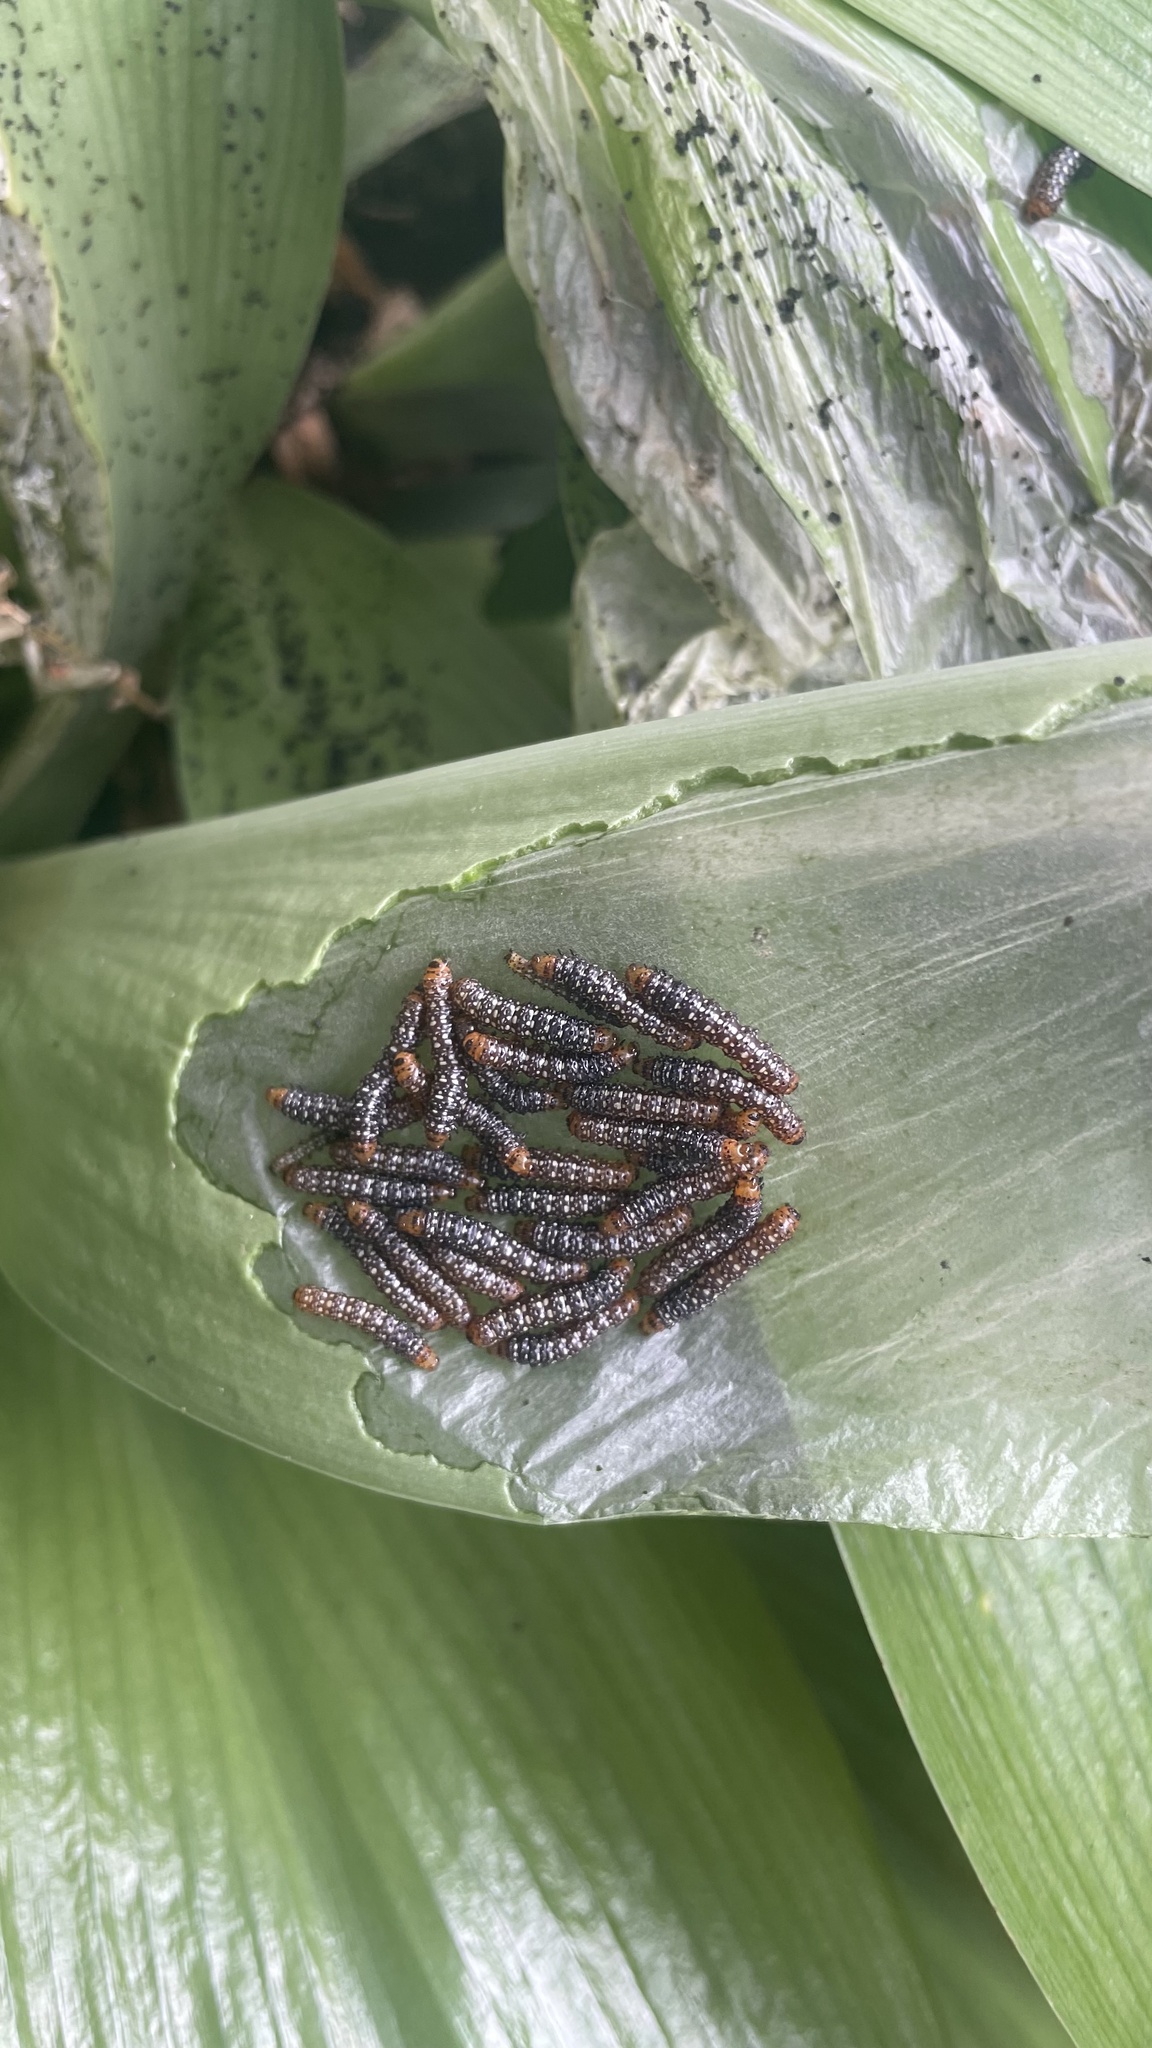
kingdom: Animalia
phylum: Arthropoda
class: Insecta
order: Lepidoptera
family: Noctuidae
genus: Xanthopastis
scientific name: Xanthopastis timais
